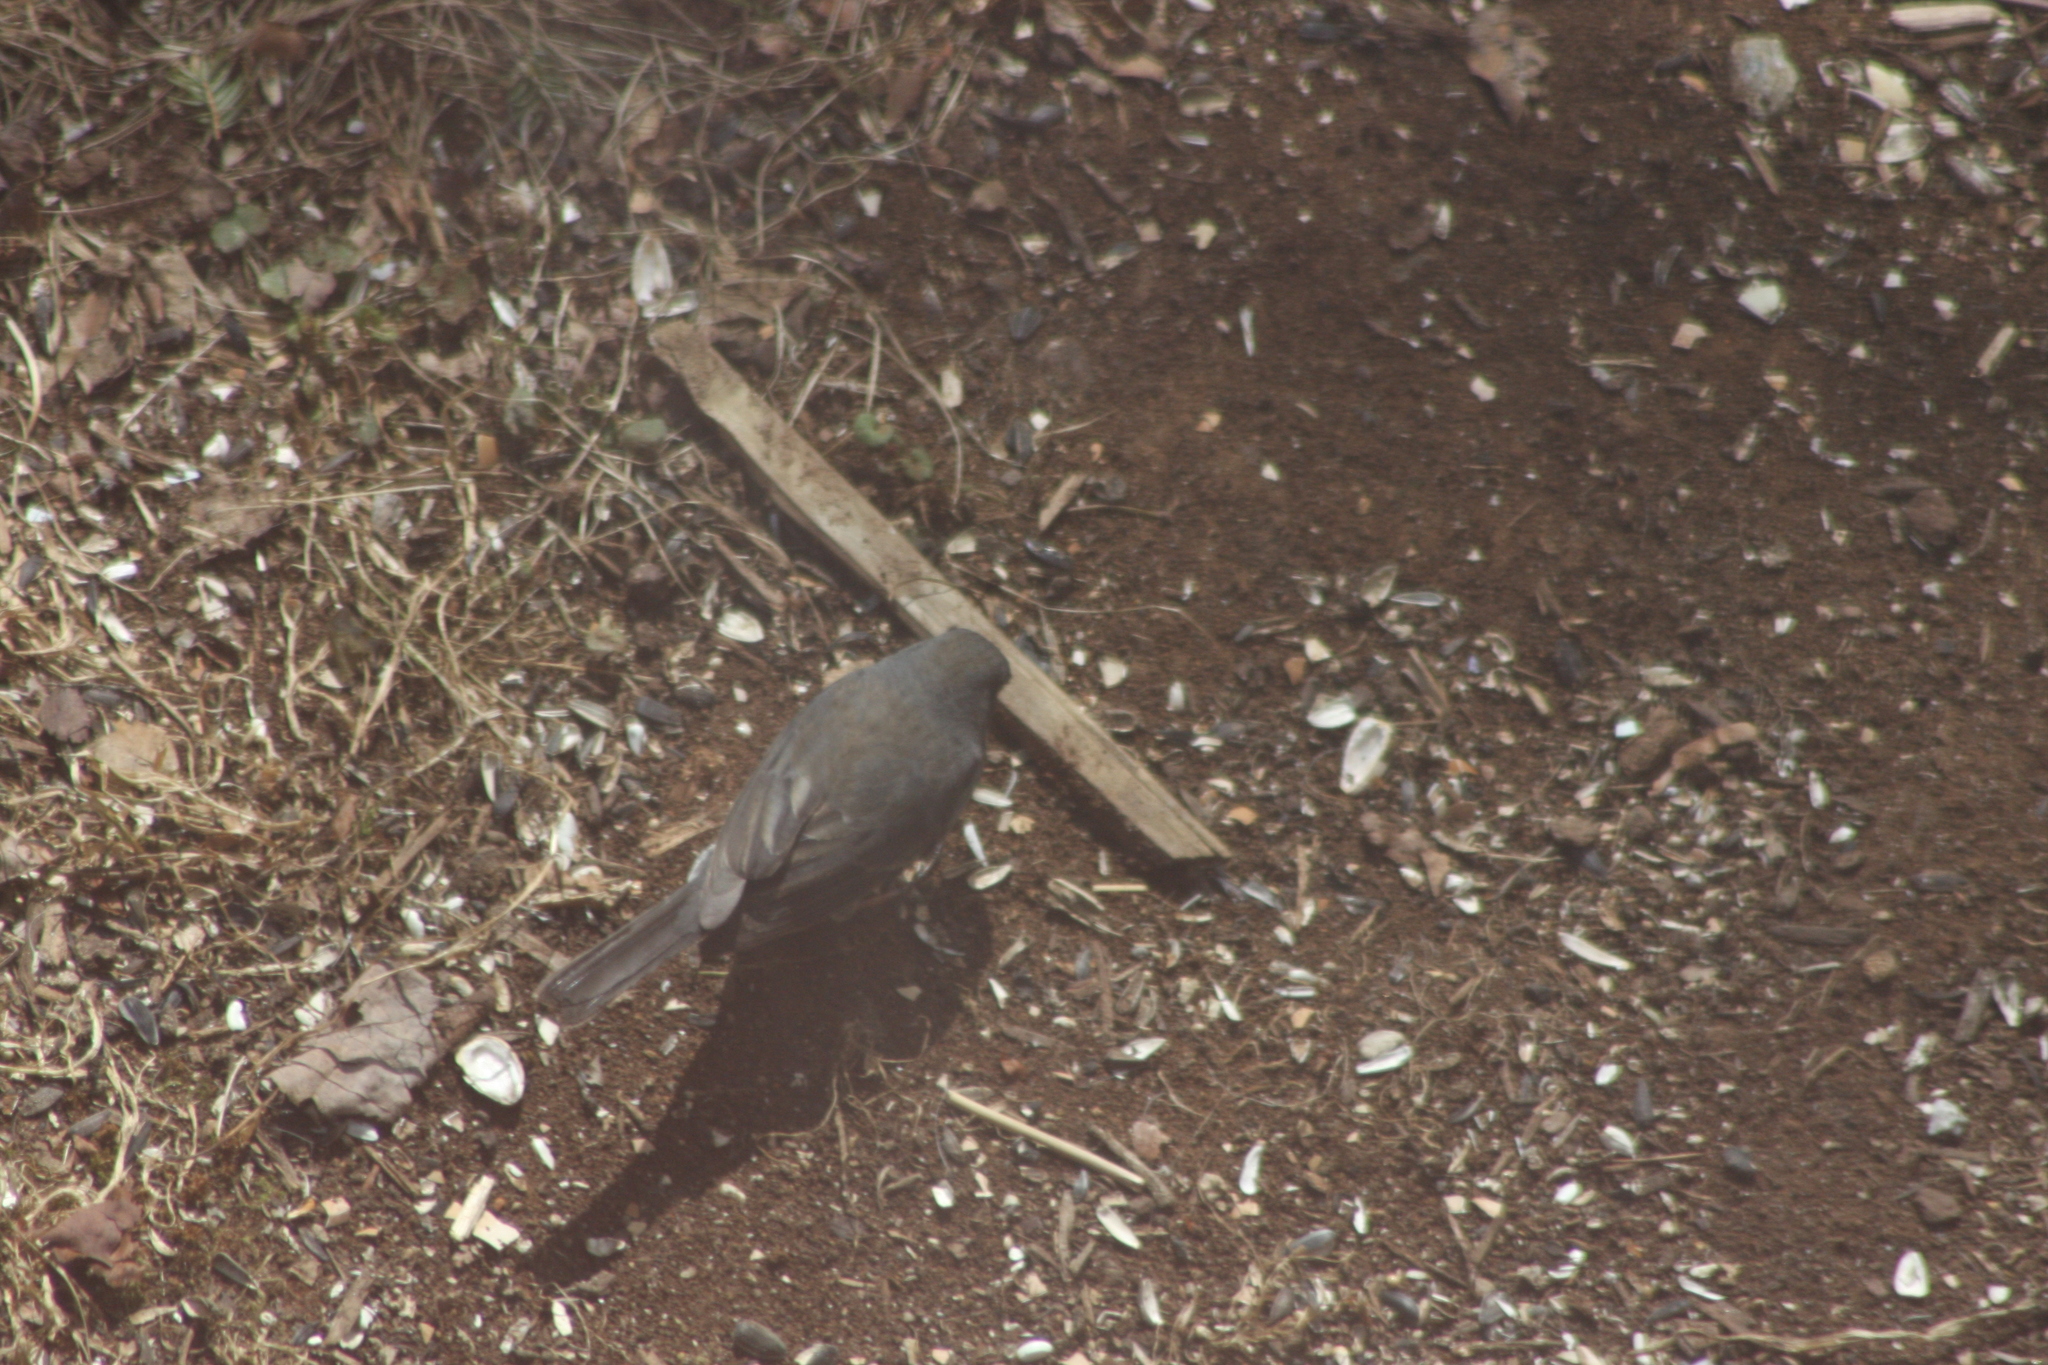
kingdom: Animalia
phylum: Chordata
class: Aves
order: Passeriformes
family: Passerellidae
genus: Junco
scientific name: Junco hyemalis
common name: Dark-eyed junco
